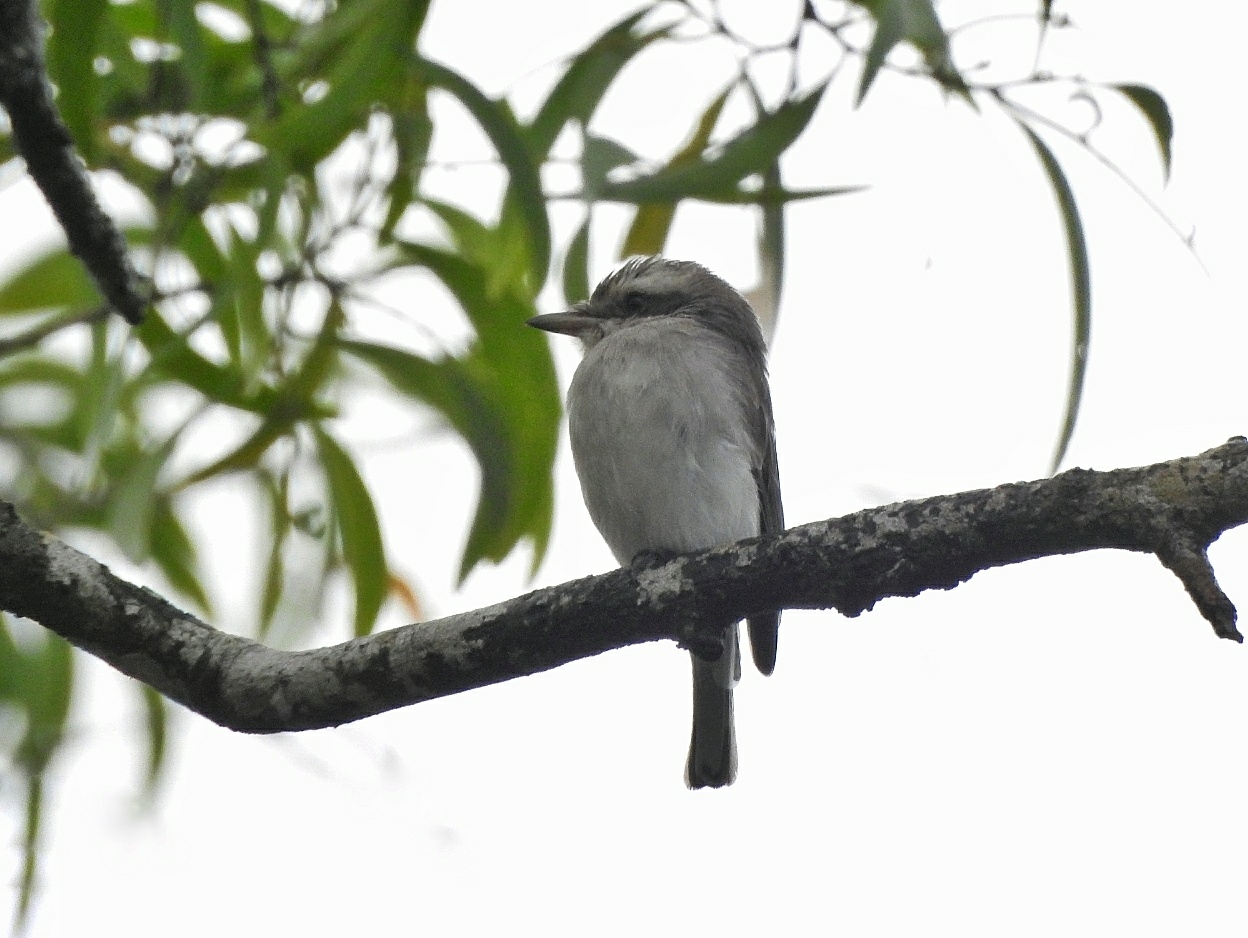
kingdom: Animalia
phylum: Chordata
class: Aves
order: Passeriformes
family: Tephrodornithidae
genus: Tephrodornis
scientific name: Tephrodornis pondicerianus
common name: Common woodshrike
